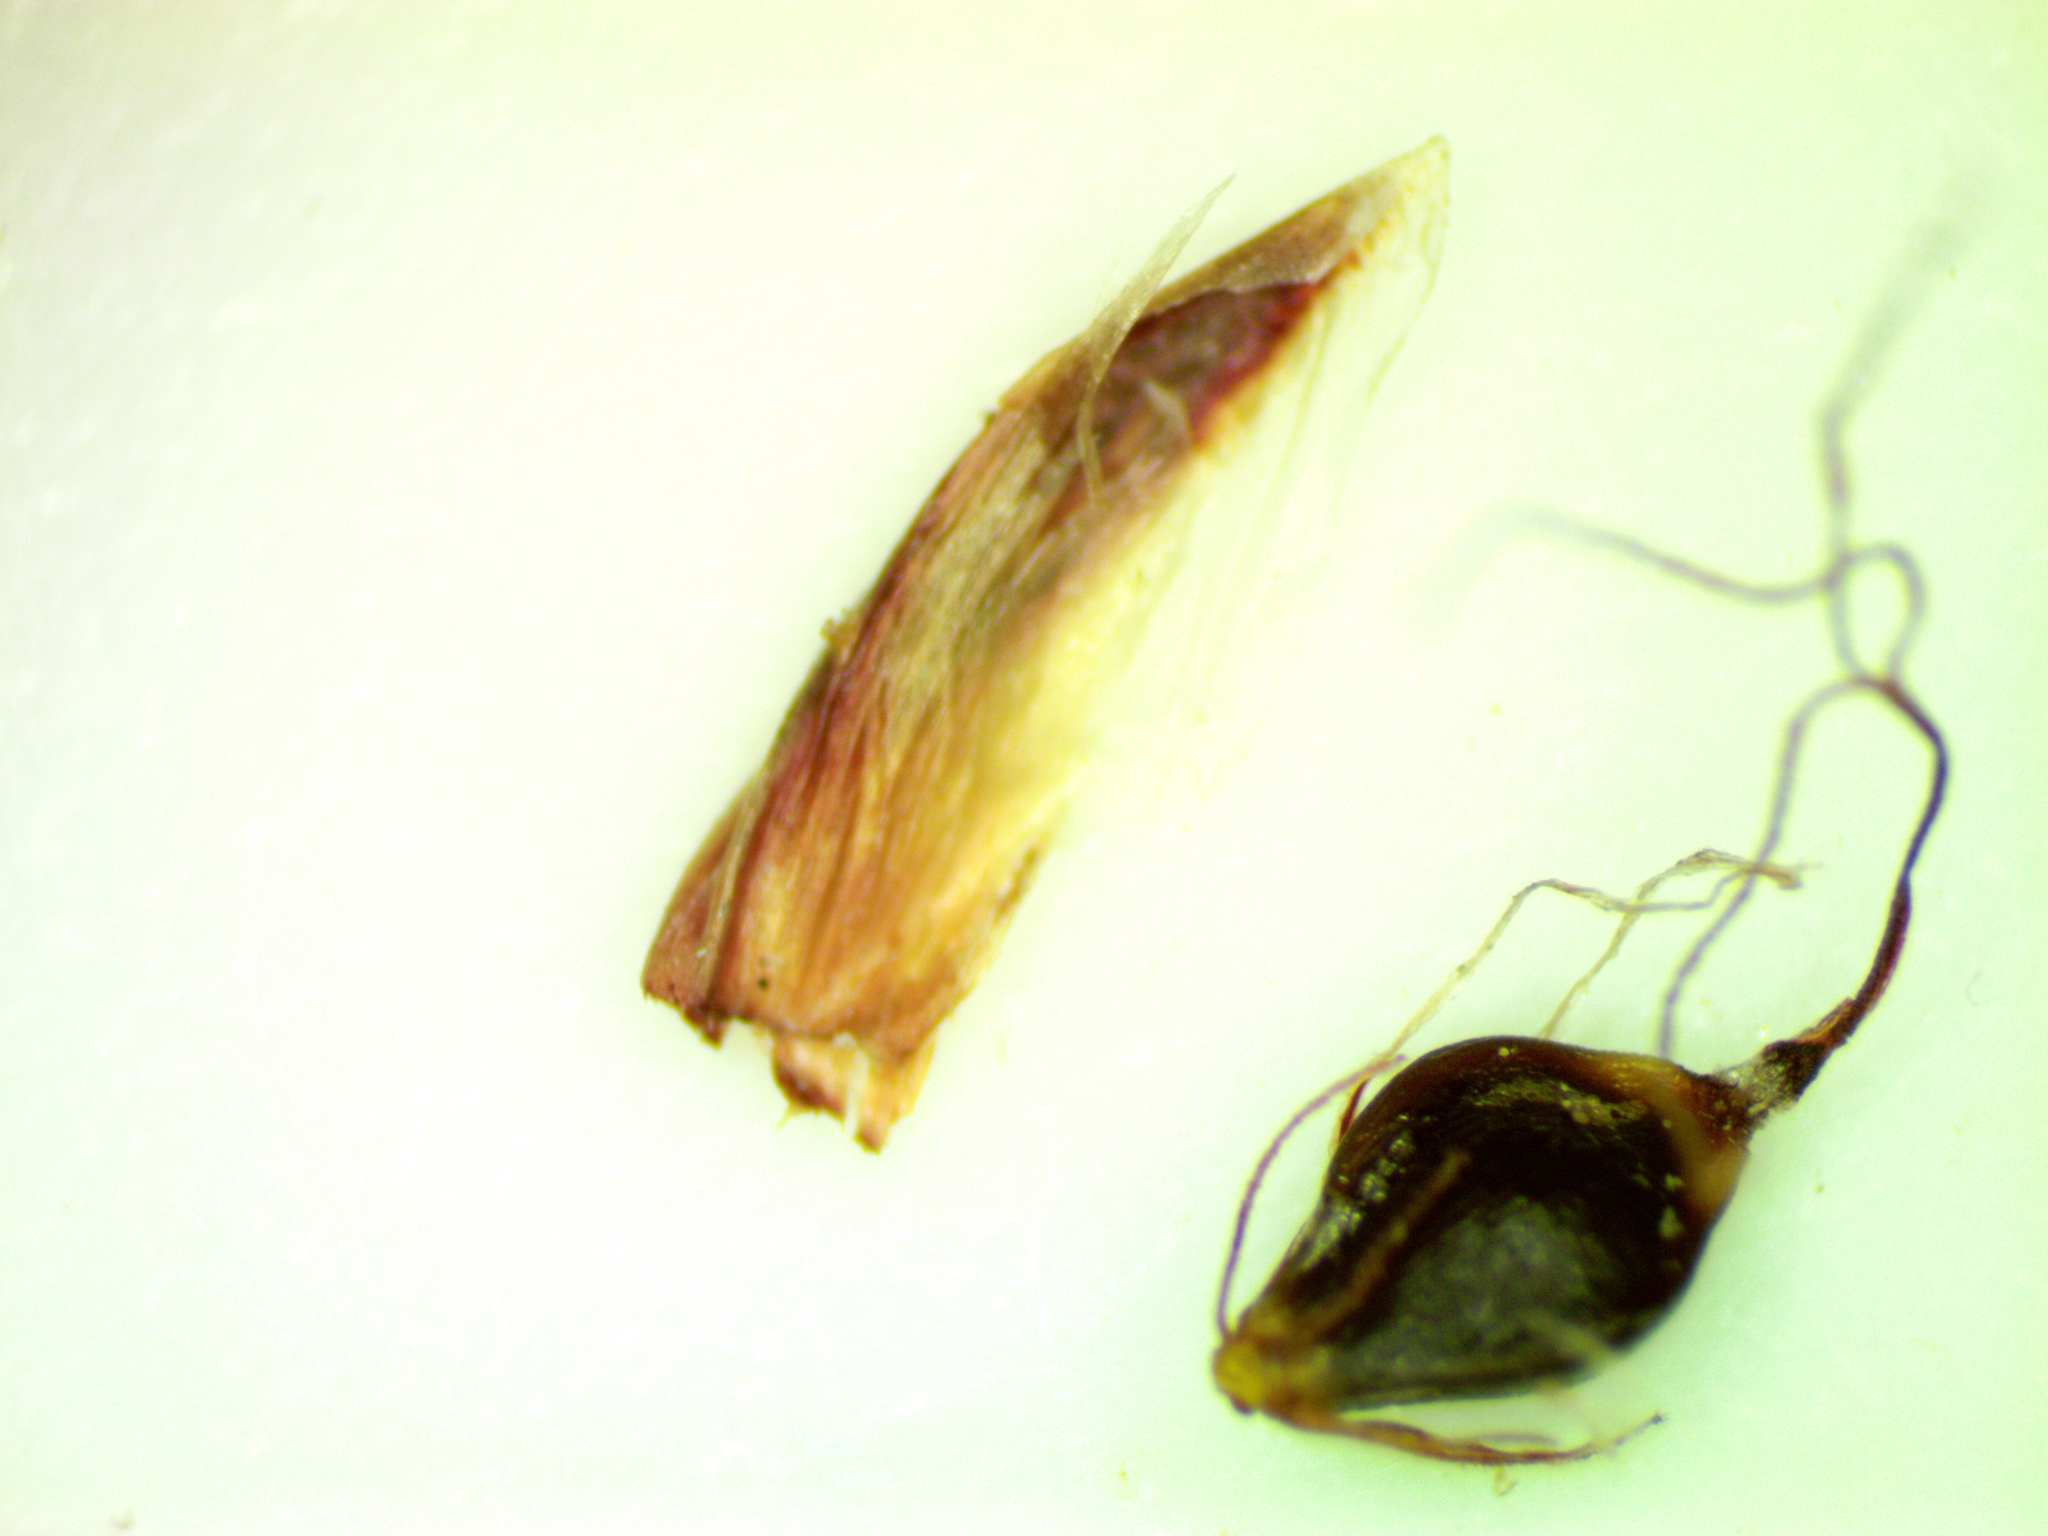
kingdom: Plantae
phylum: Tracheophyta
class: Liliopsida
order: Poales
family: Cyperaceae
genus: Eleocharis
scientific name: Eleocharis quinqueflora
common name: Few-flowered spike-rush
